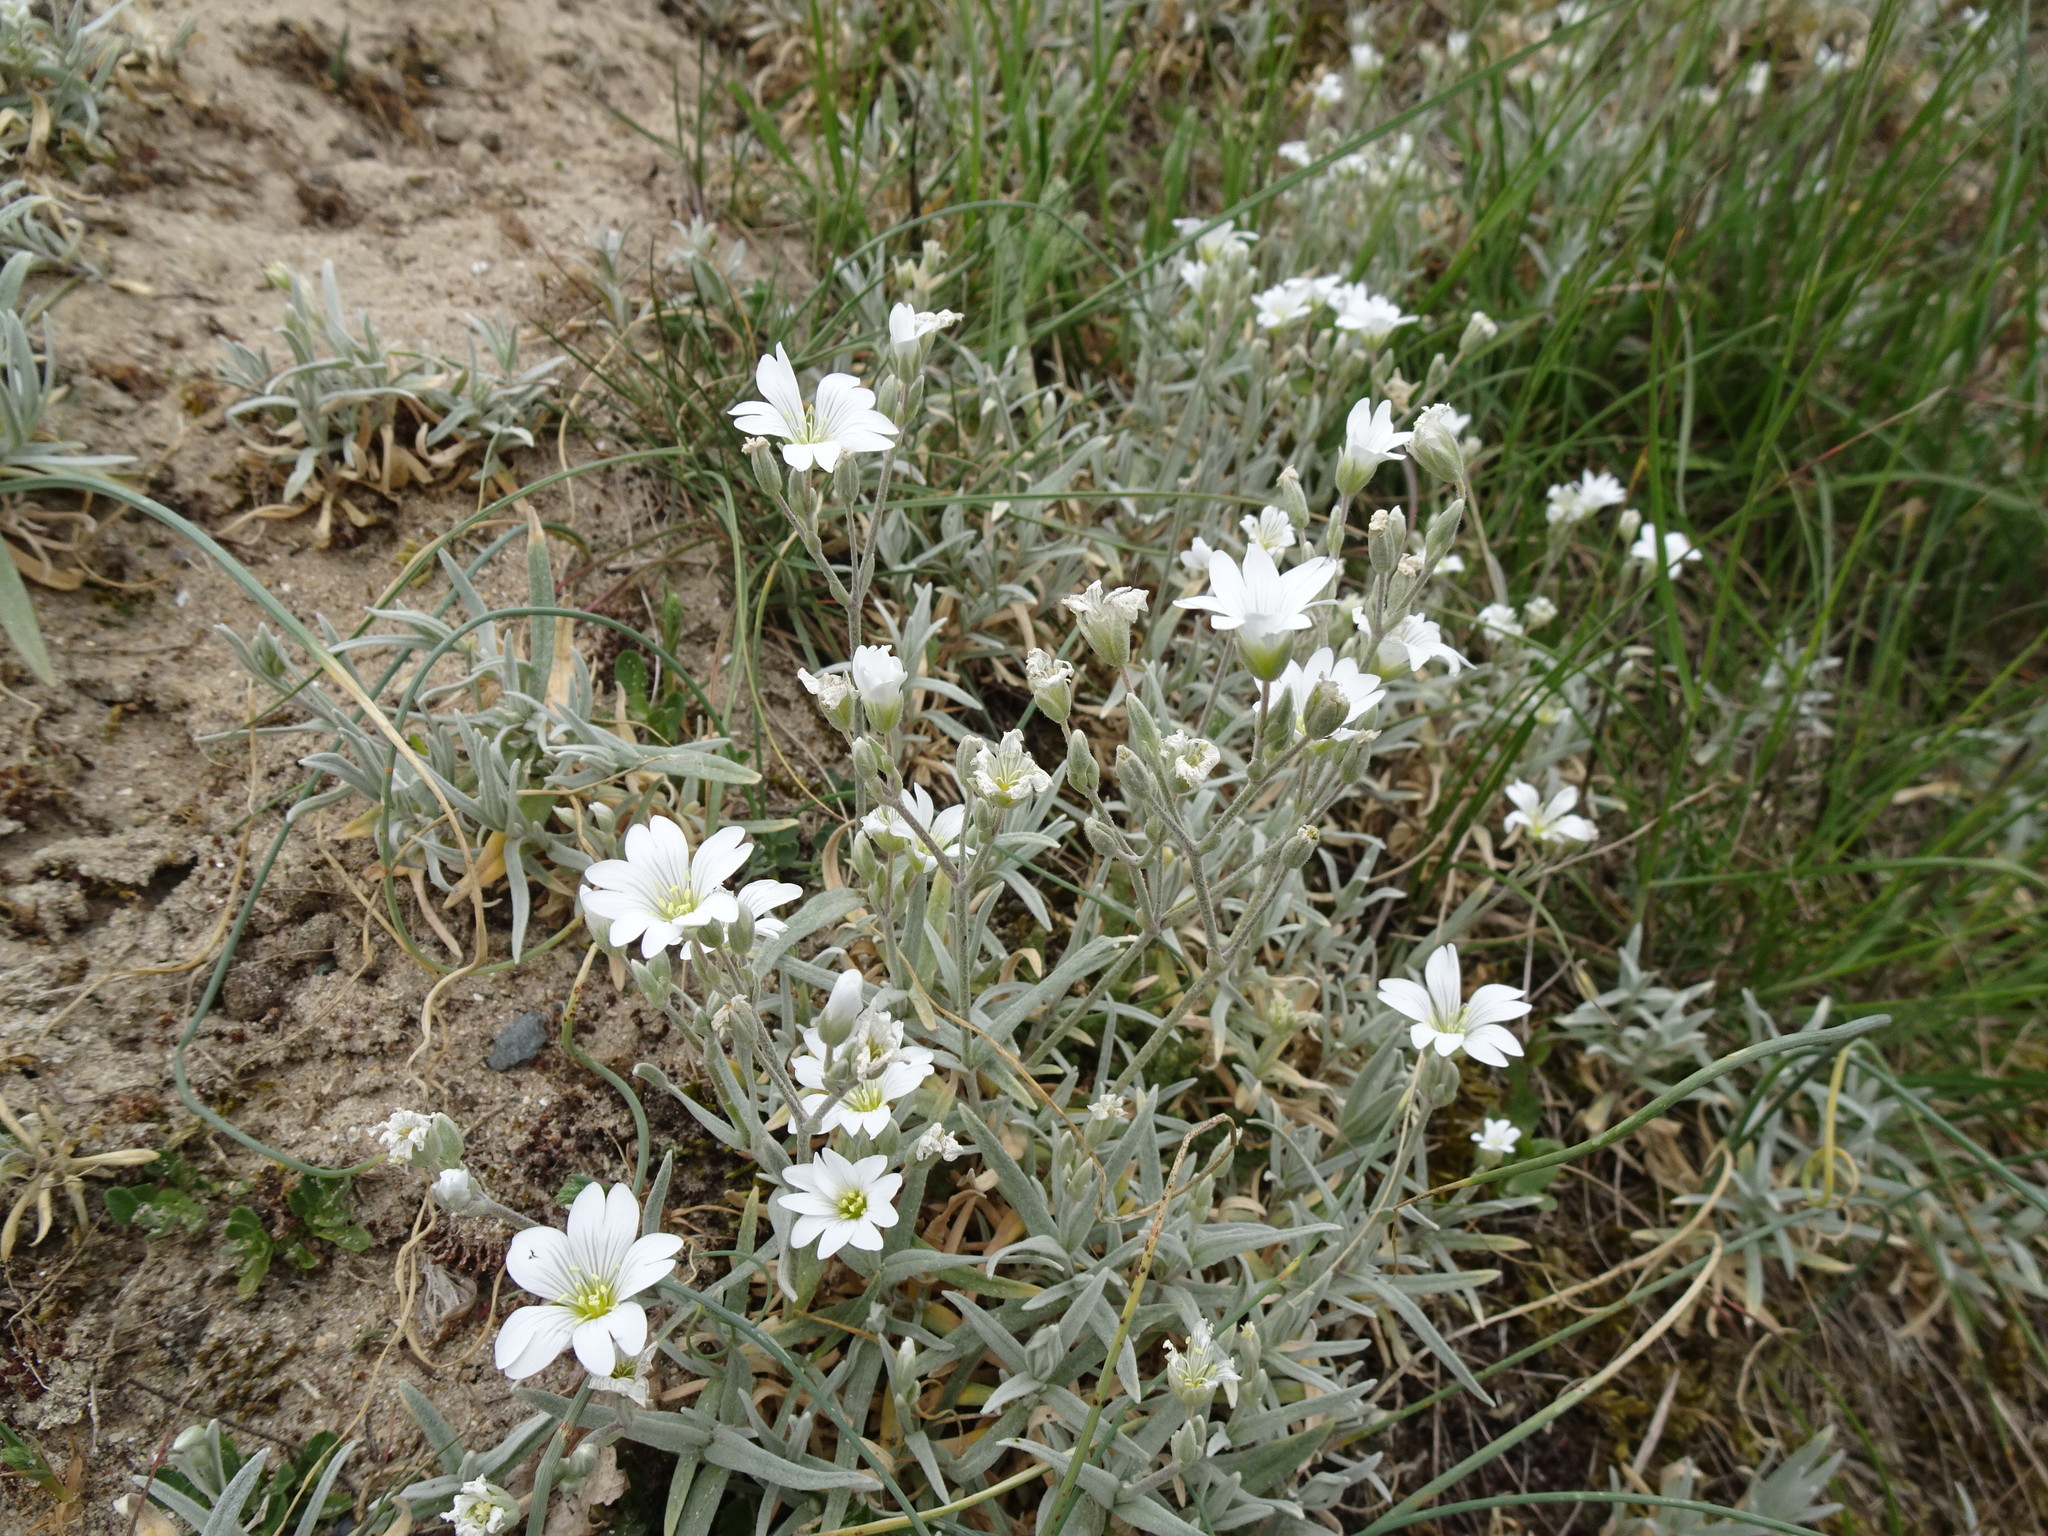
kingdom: Plantae
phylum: Tracheophyta
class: Magnoliopsida
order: Caryophyllales
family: Caryophyllaceae
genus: Cerastium
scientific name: Cerastium tomentosum
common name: Snow-in-summer
